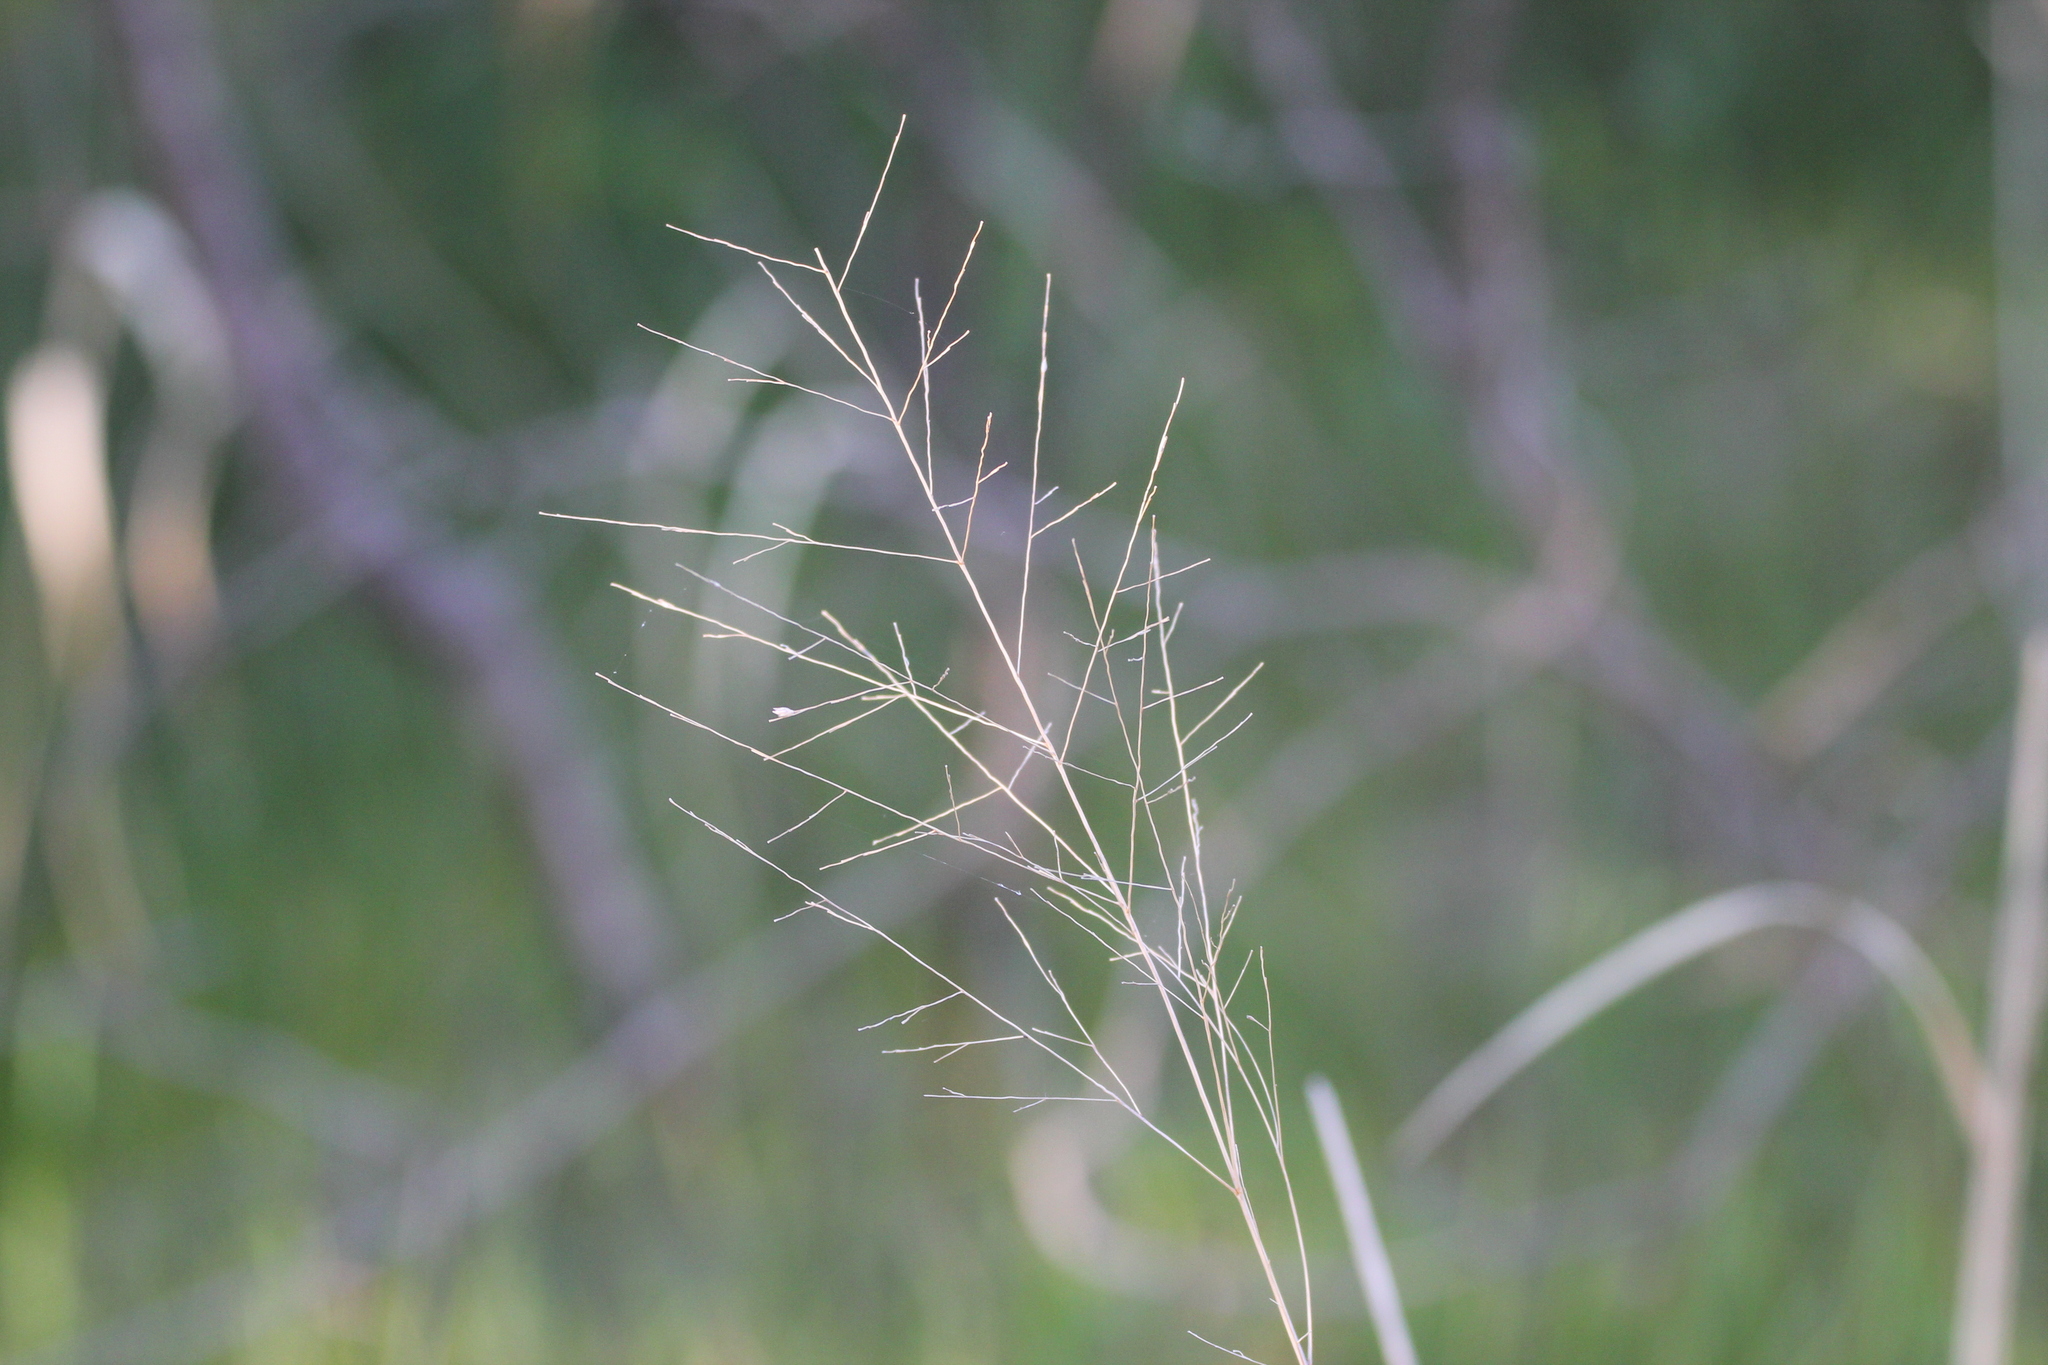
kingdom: Plantae
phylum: Tracheophyta
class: Liliopsida
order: Poales
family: Poaceae
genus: Panicum
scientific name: Panicum virgatum
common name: Switchgrass
